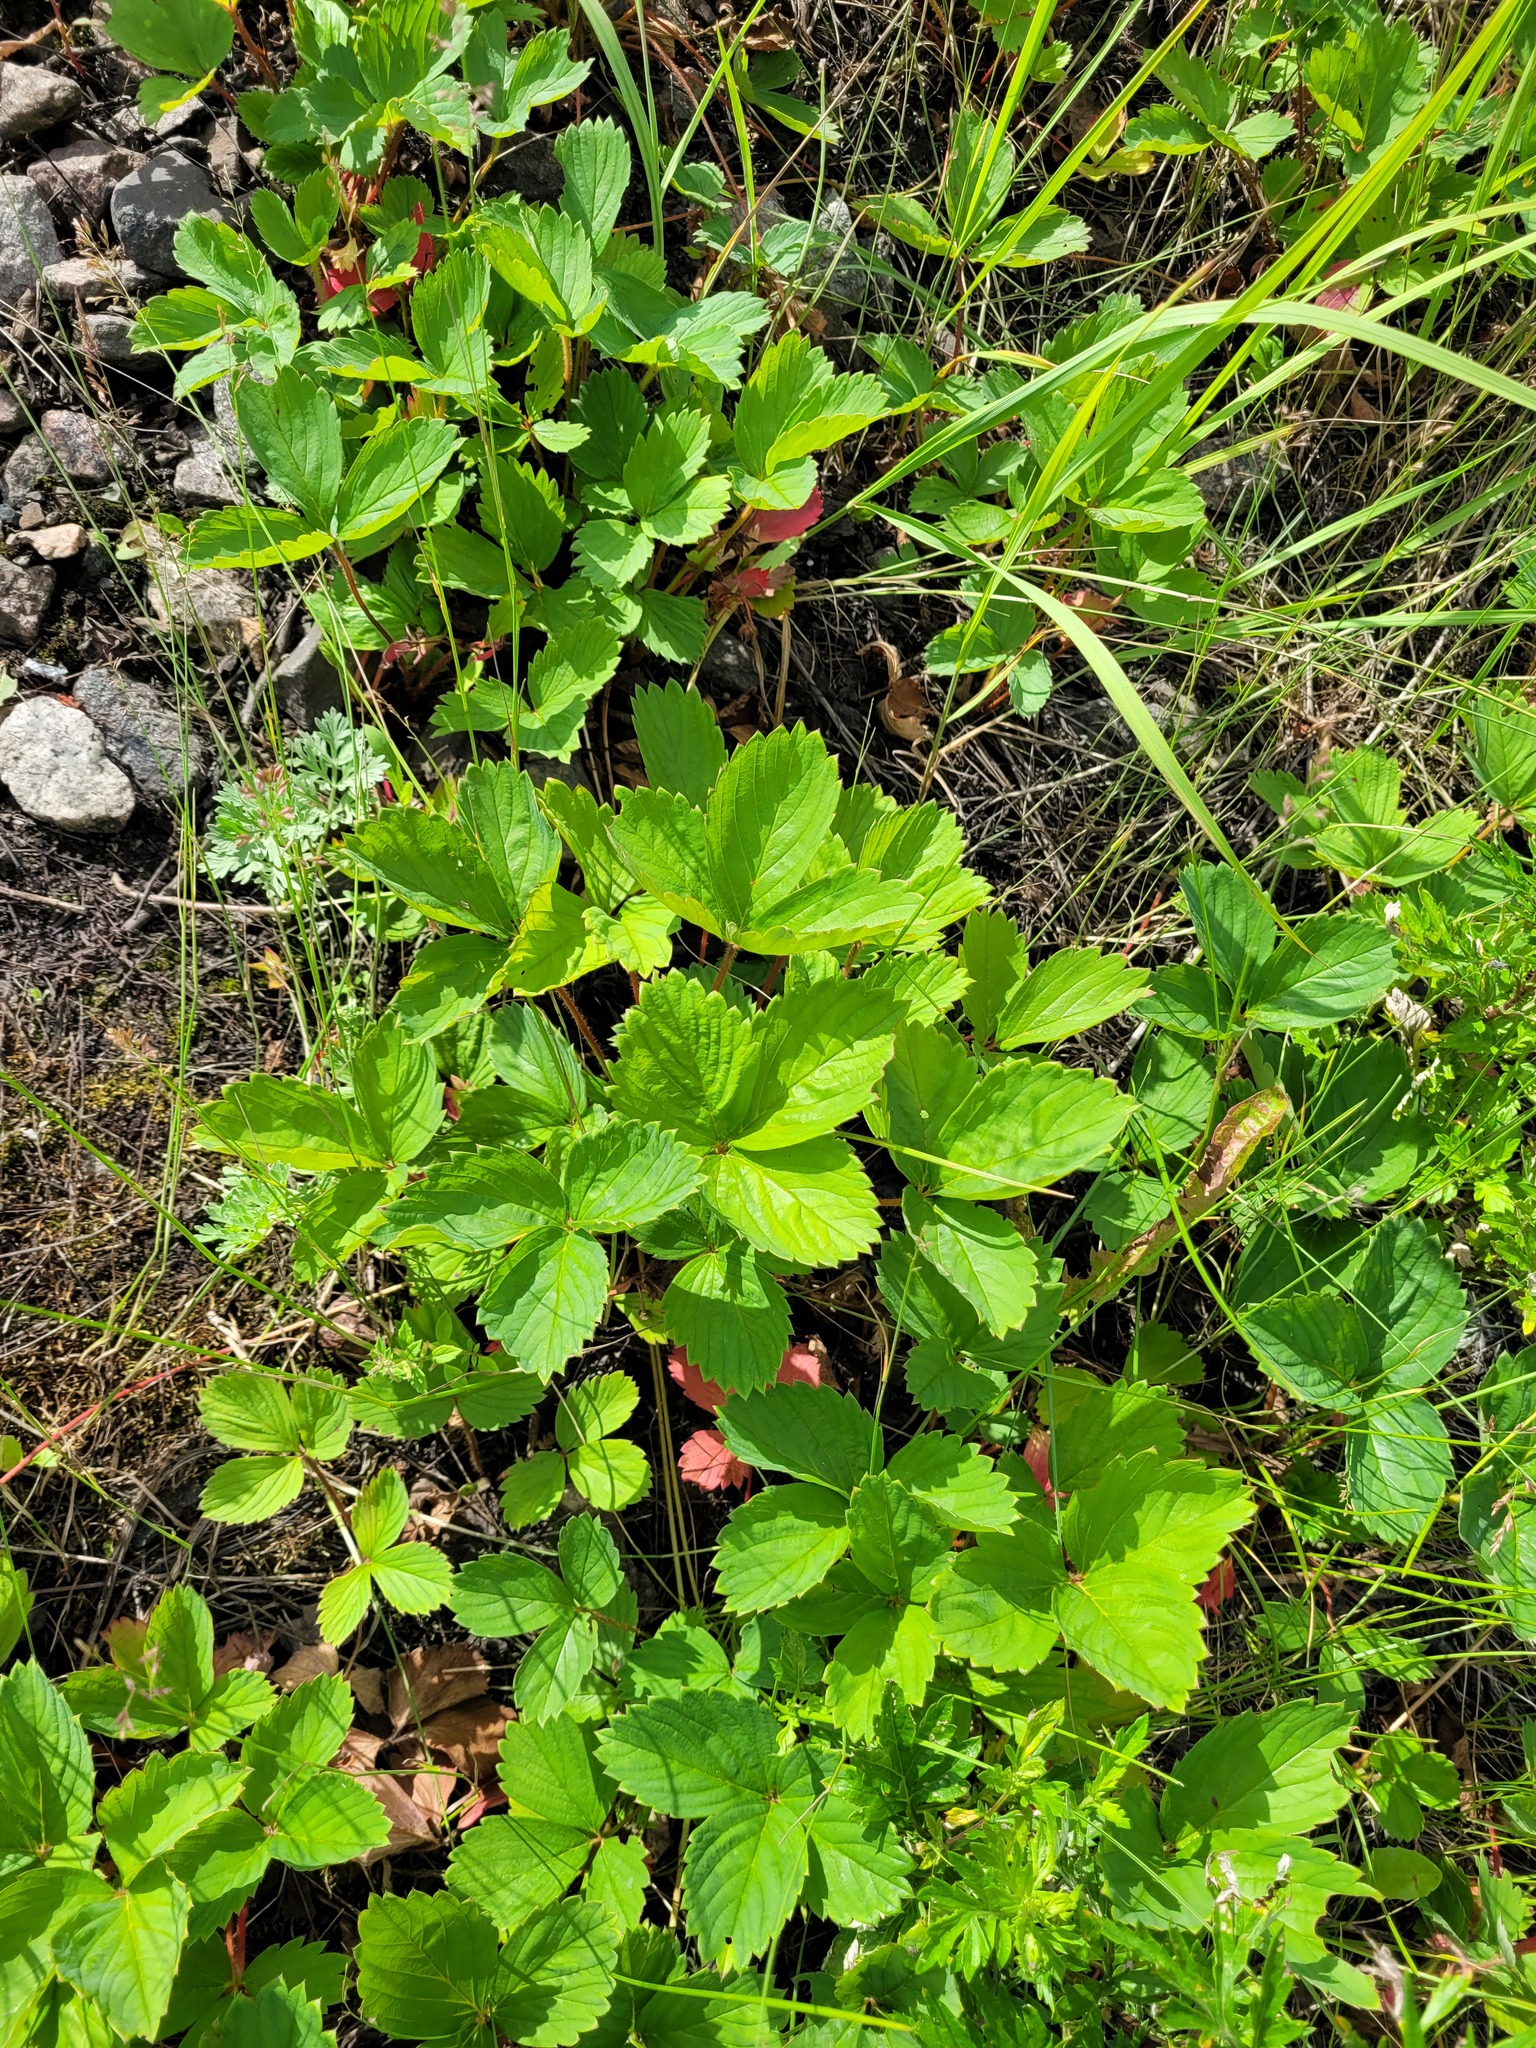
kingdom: Plantae
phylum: Tracheophyta
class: Magnoliopsida
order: Rosales
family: Rosaceae
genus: Fragaria
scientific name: Fragaria ananassa
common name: Garden strawberry
